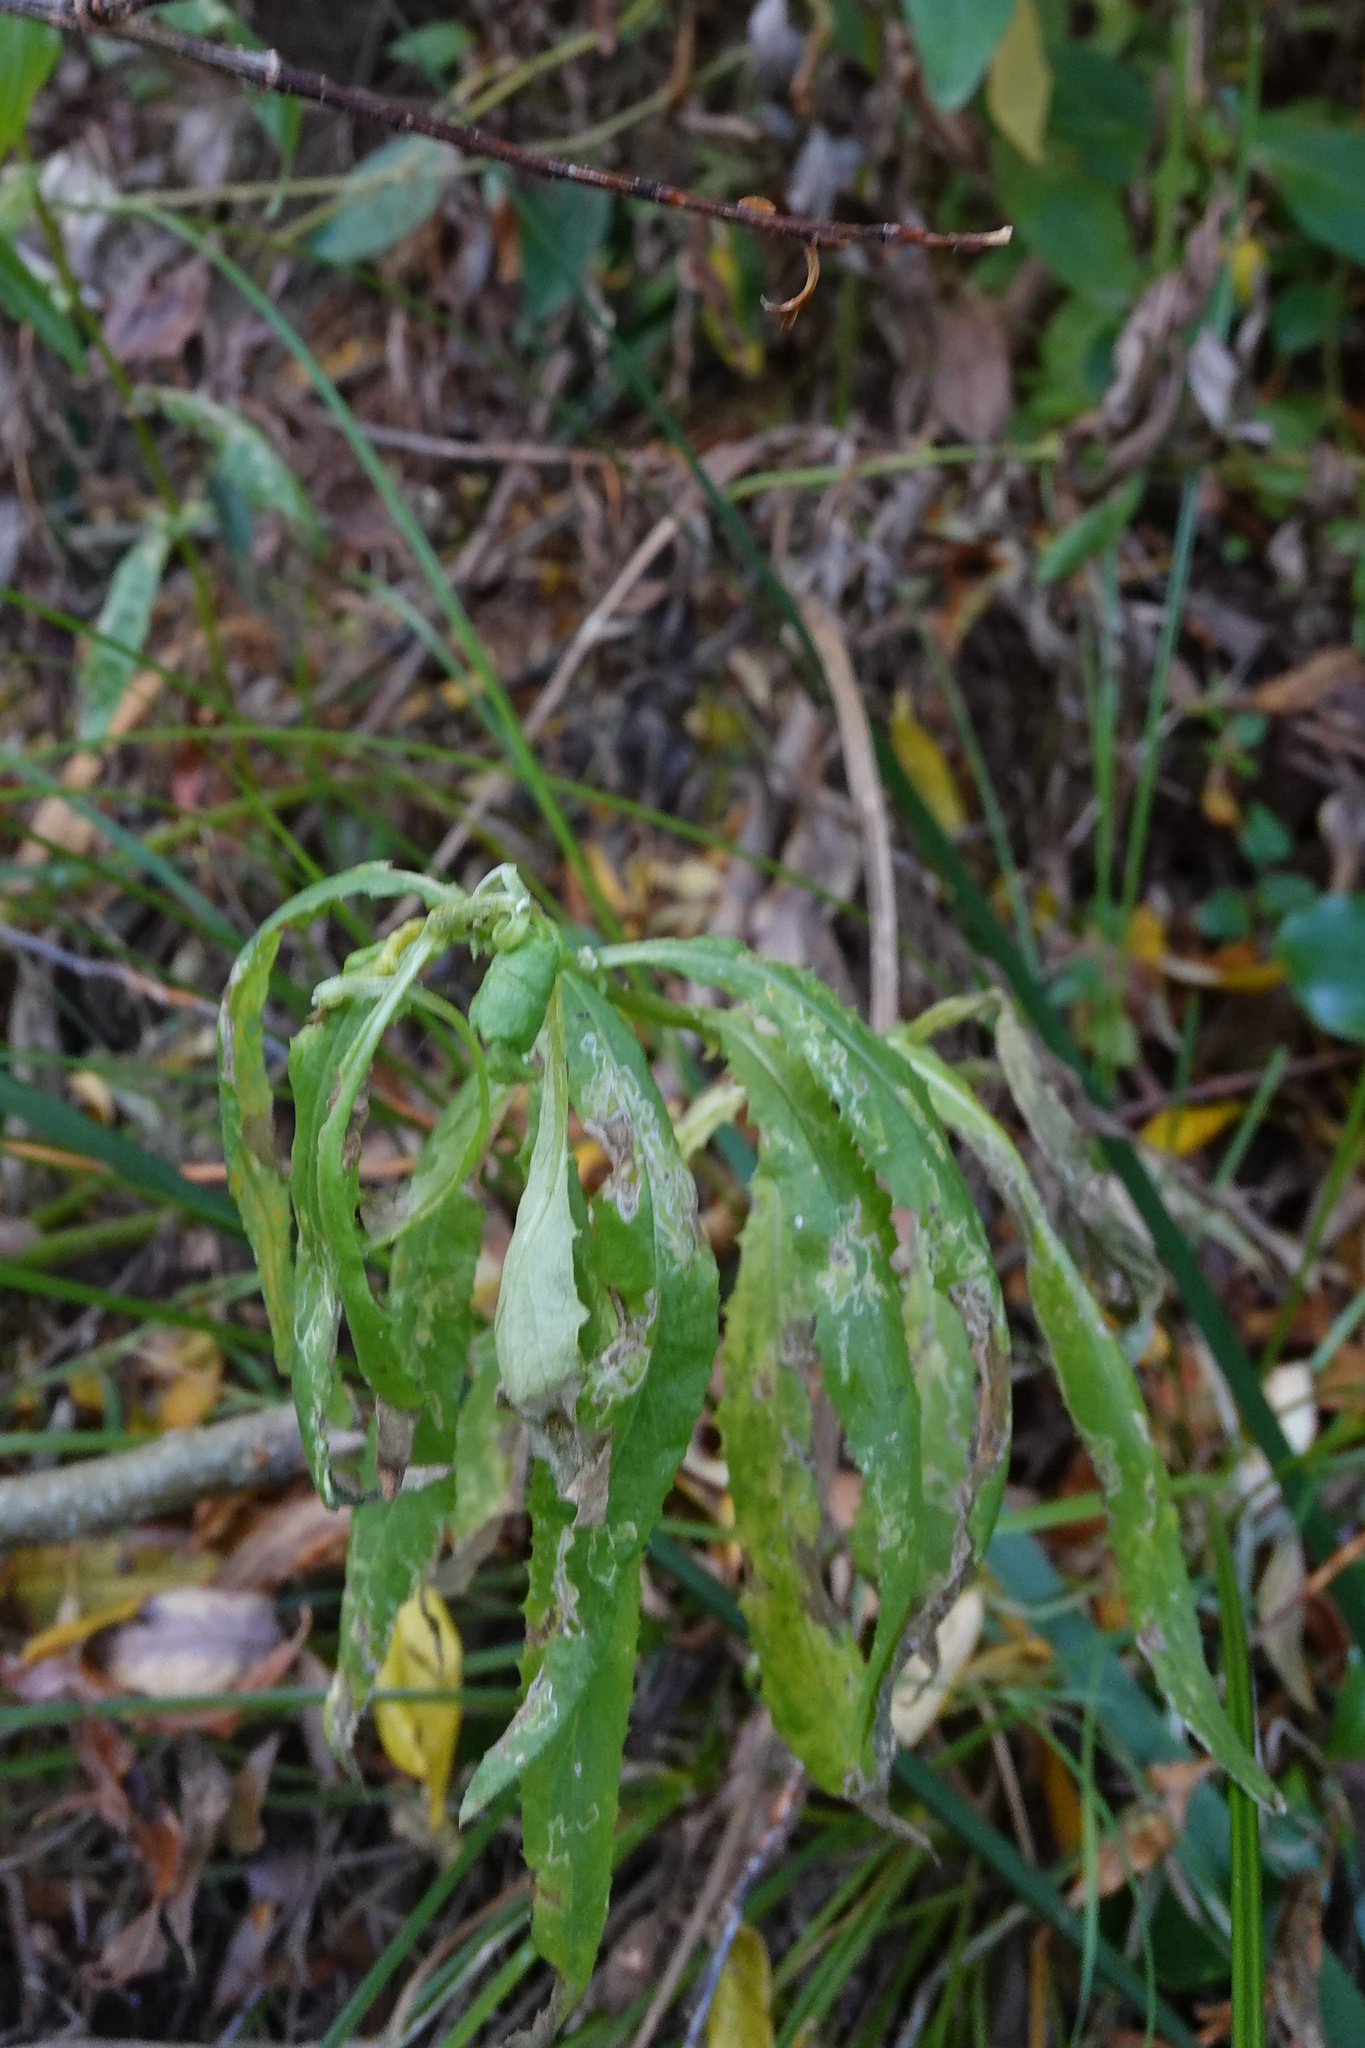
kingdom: Plantae
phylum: Tracheophyta
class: Magnoliopsida
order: Asterales
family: Asteraceae
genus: Senecio
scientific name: Senecio minimus
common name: Toothed fireweed
